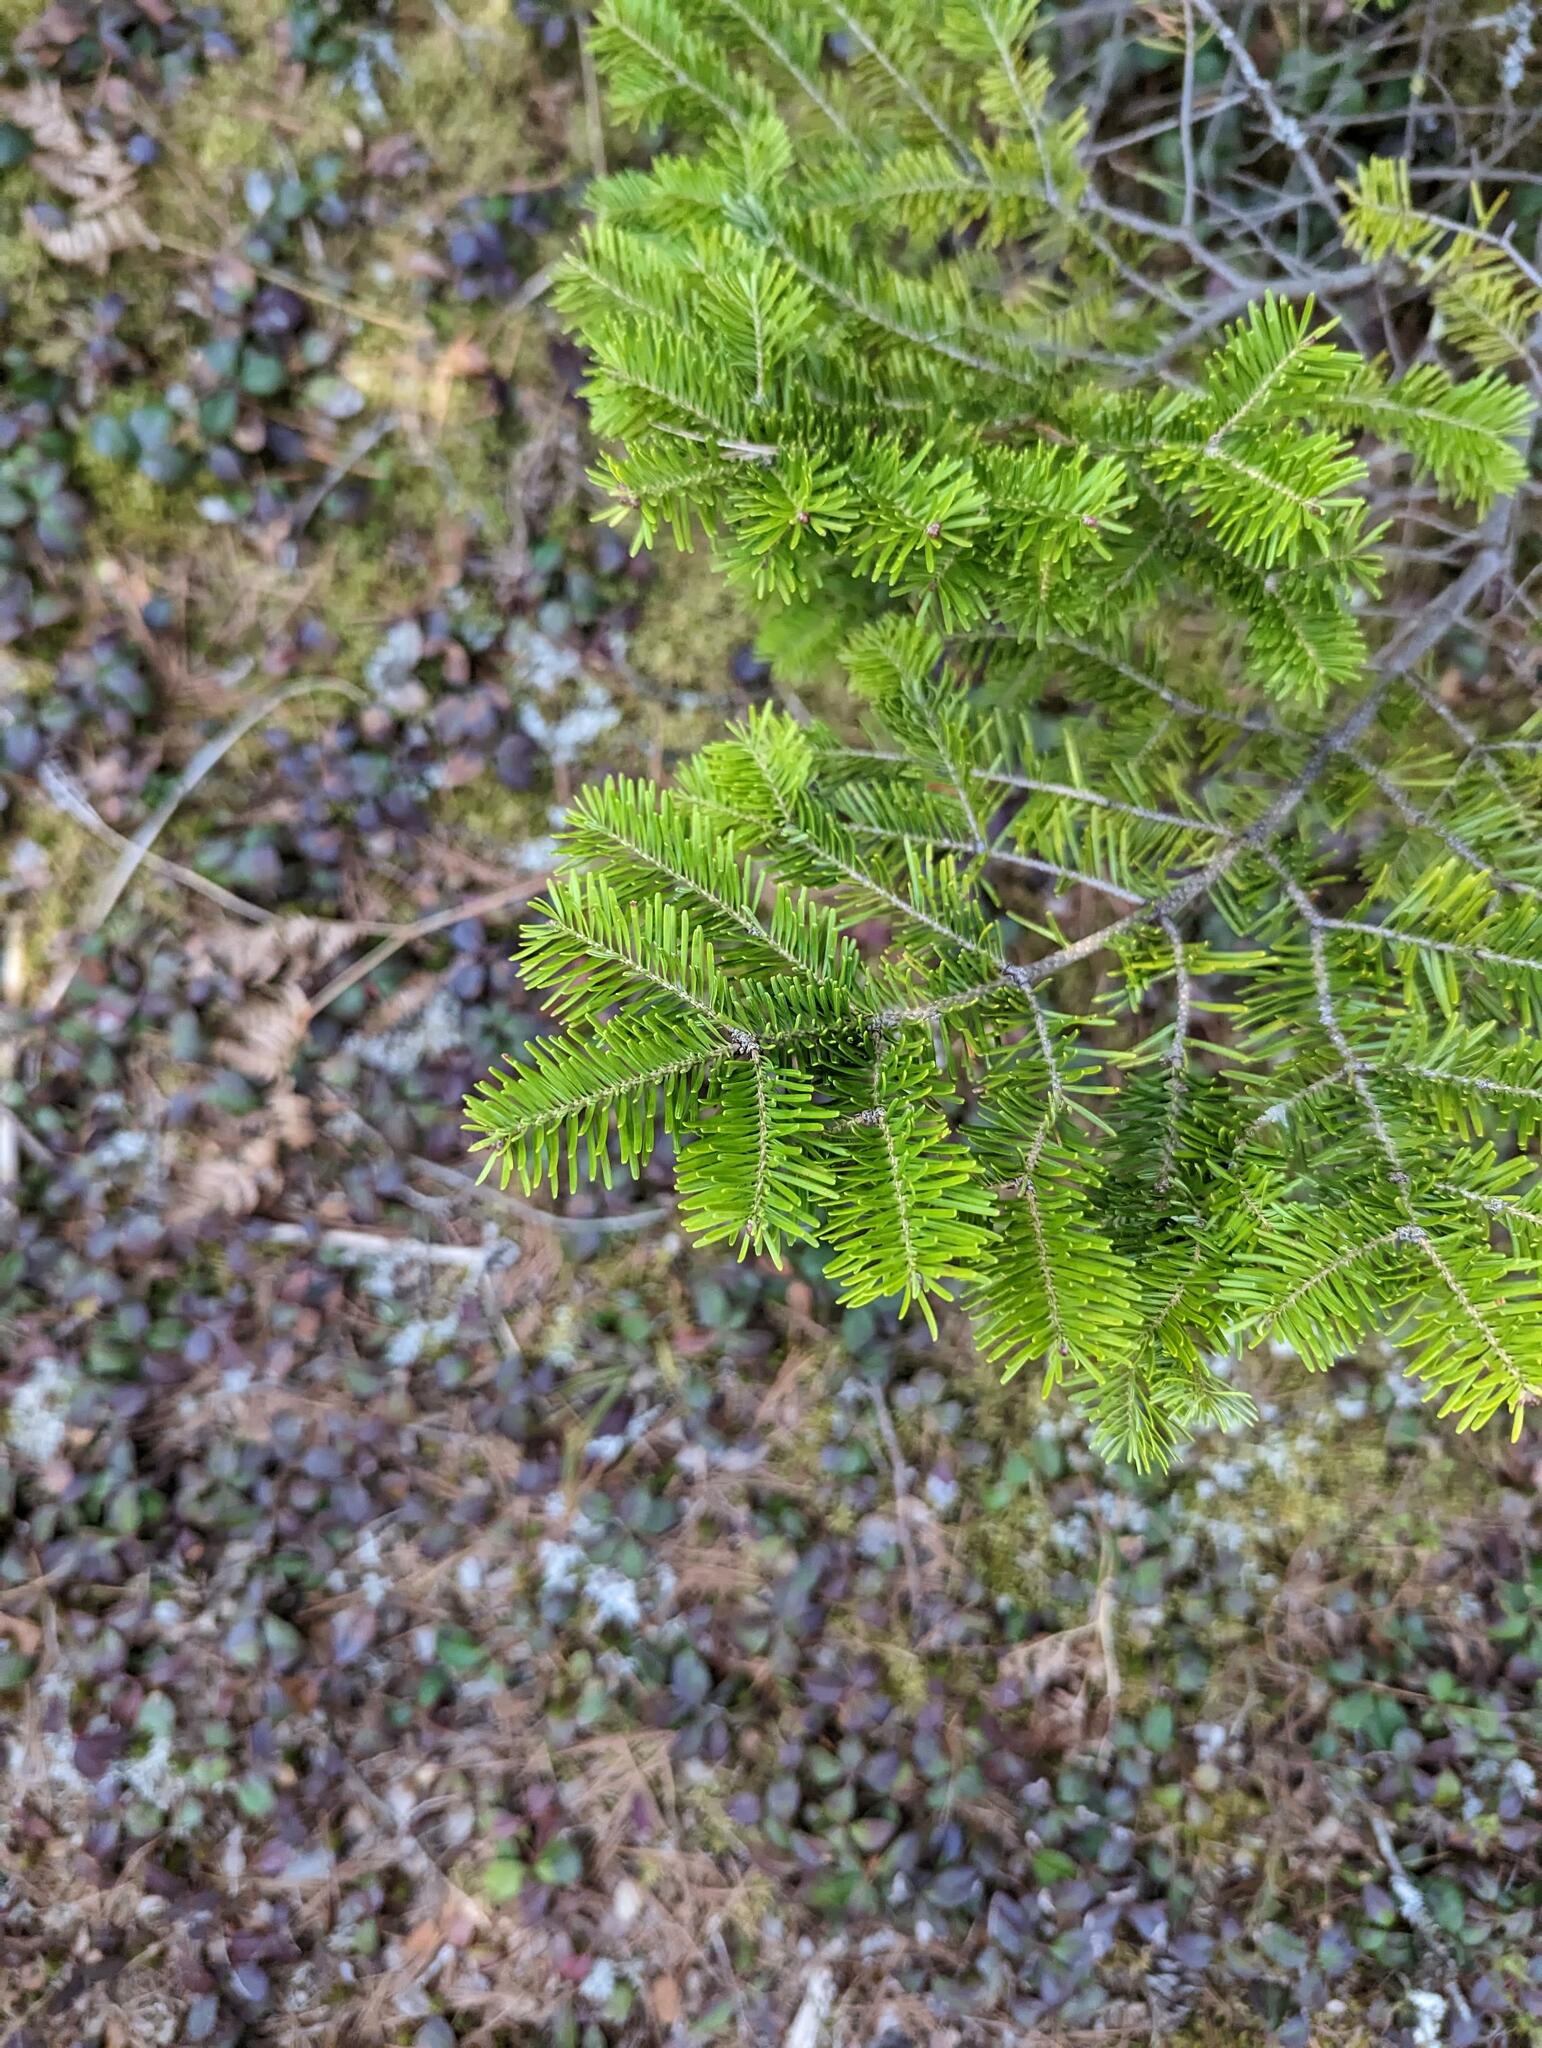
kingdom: Plantae
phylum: Tracheophyta
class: Pinopsida
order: Pinales
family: Pinaceae
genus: Abies
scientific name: Abies balsamea
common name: Balsam fir
